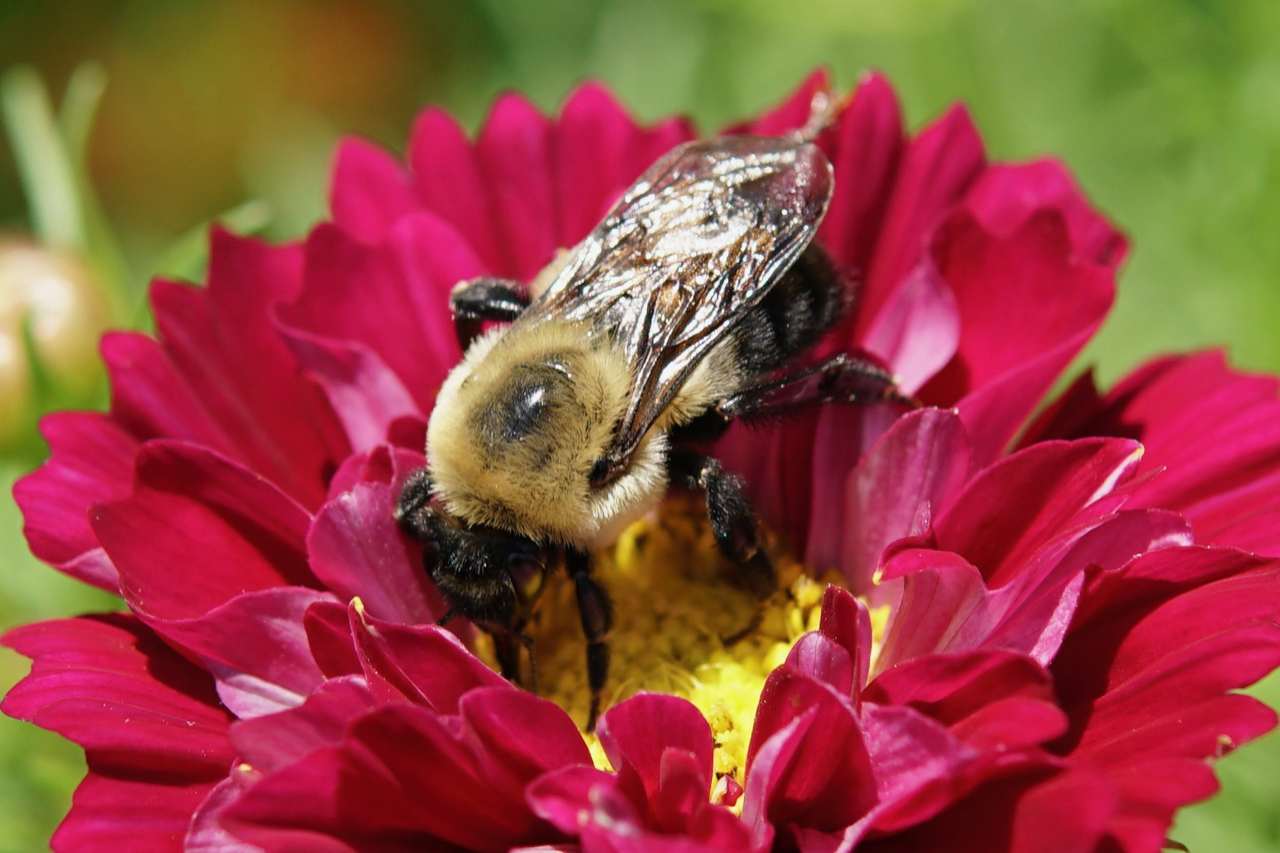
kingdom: Animalia
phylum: Arthropoda
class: Insecta
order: Hymenoptera
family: Apidae
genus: Bombus
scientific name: Bombus griseocollis
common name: Brown-belted bumble bee
